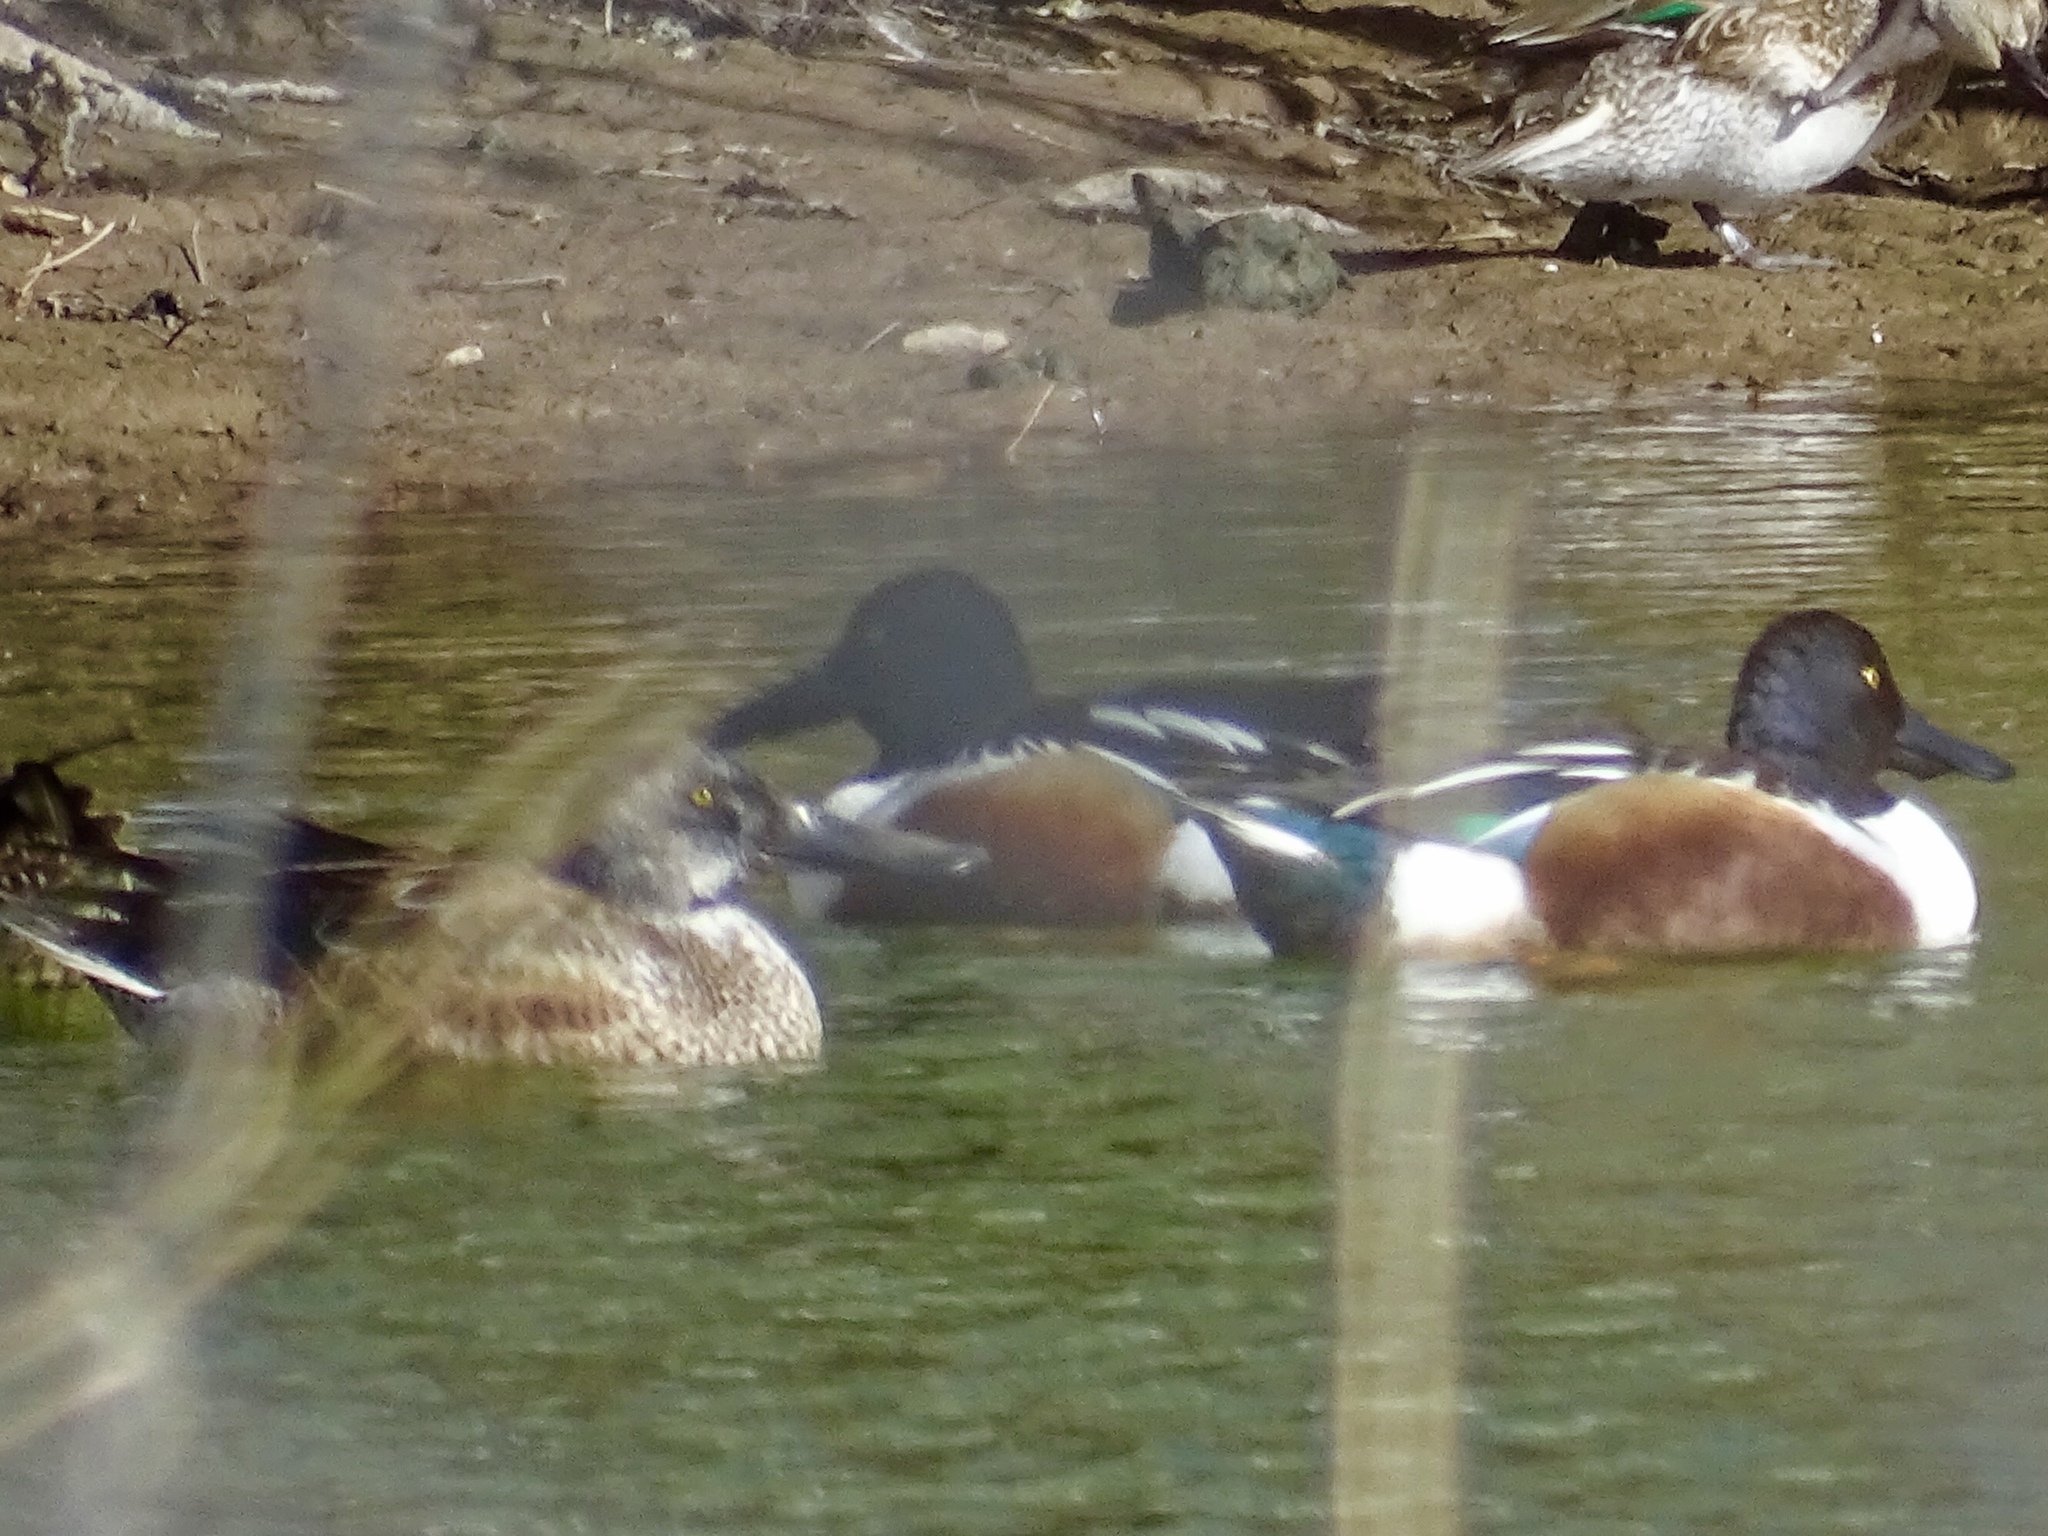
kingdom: Animalia
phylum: Chordata
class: Aves
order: Anseriformes
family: Anatidae
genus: Spatula
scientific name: Spatula clypeata
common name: Northern shoveler
